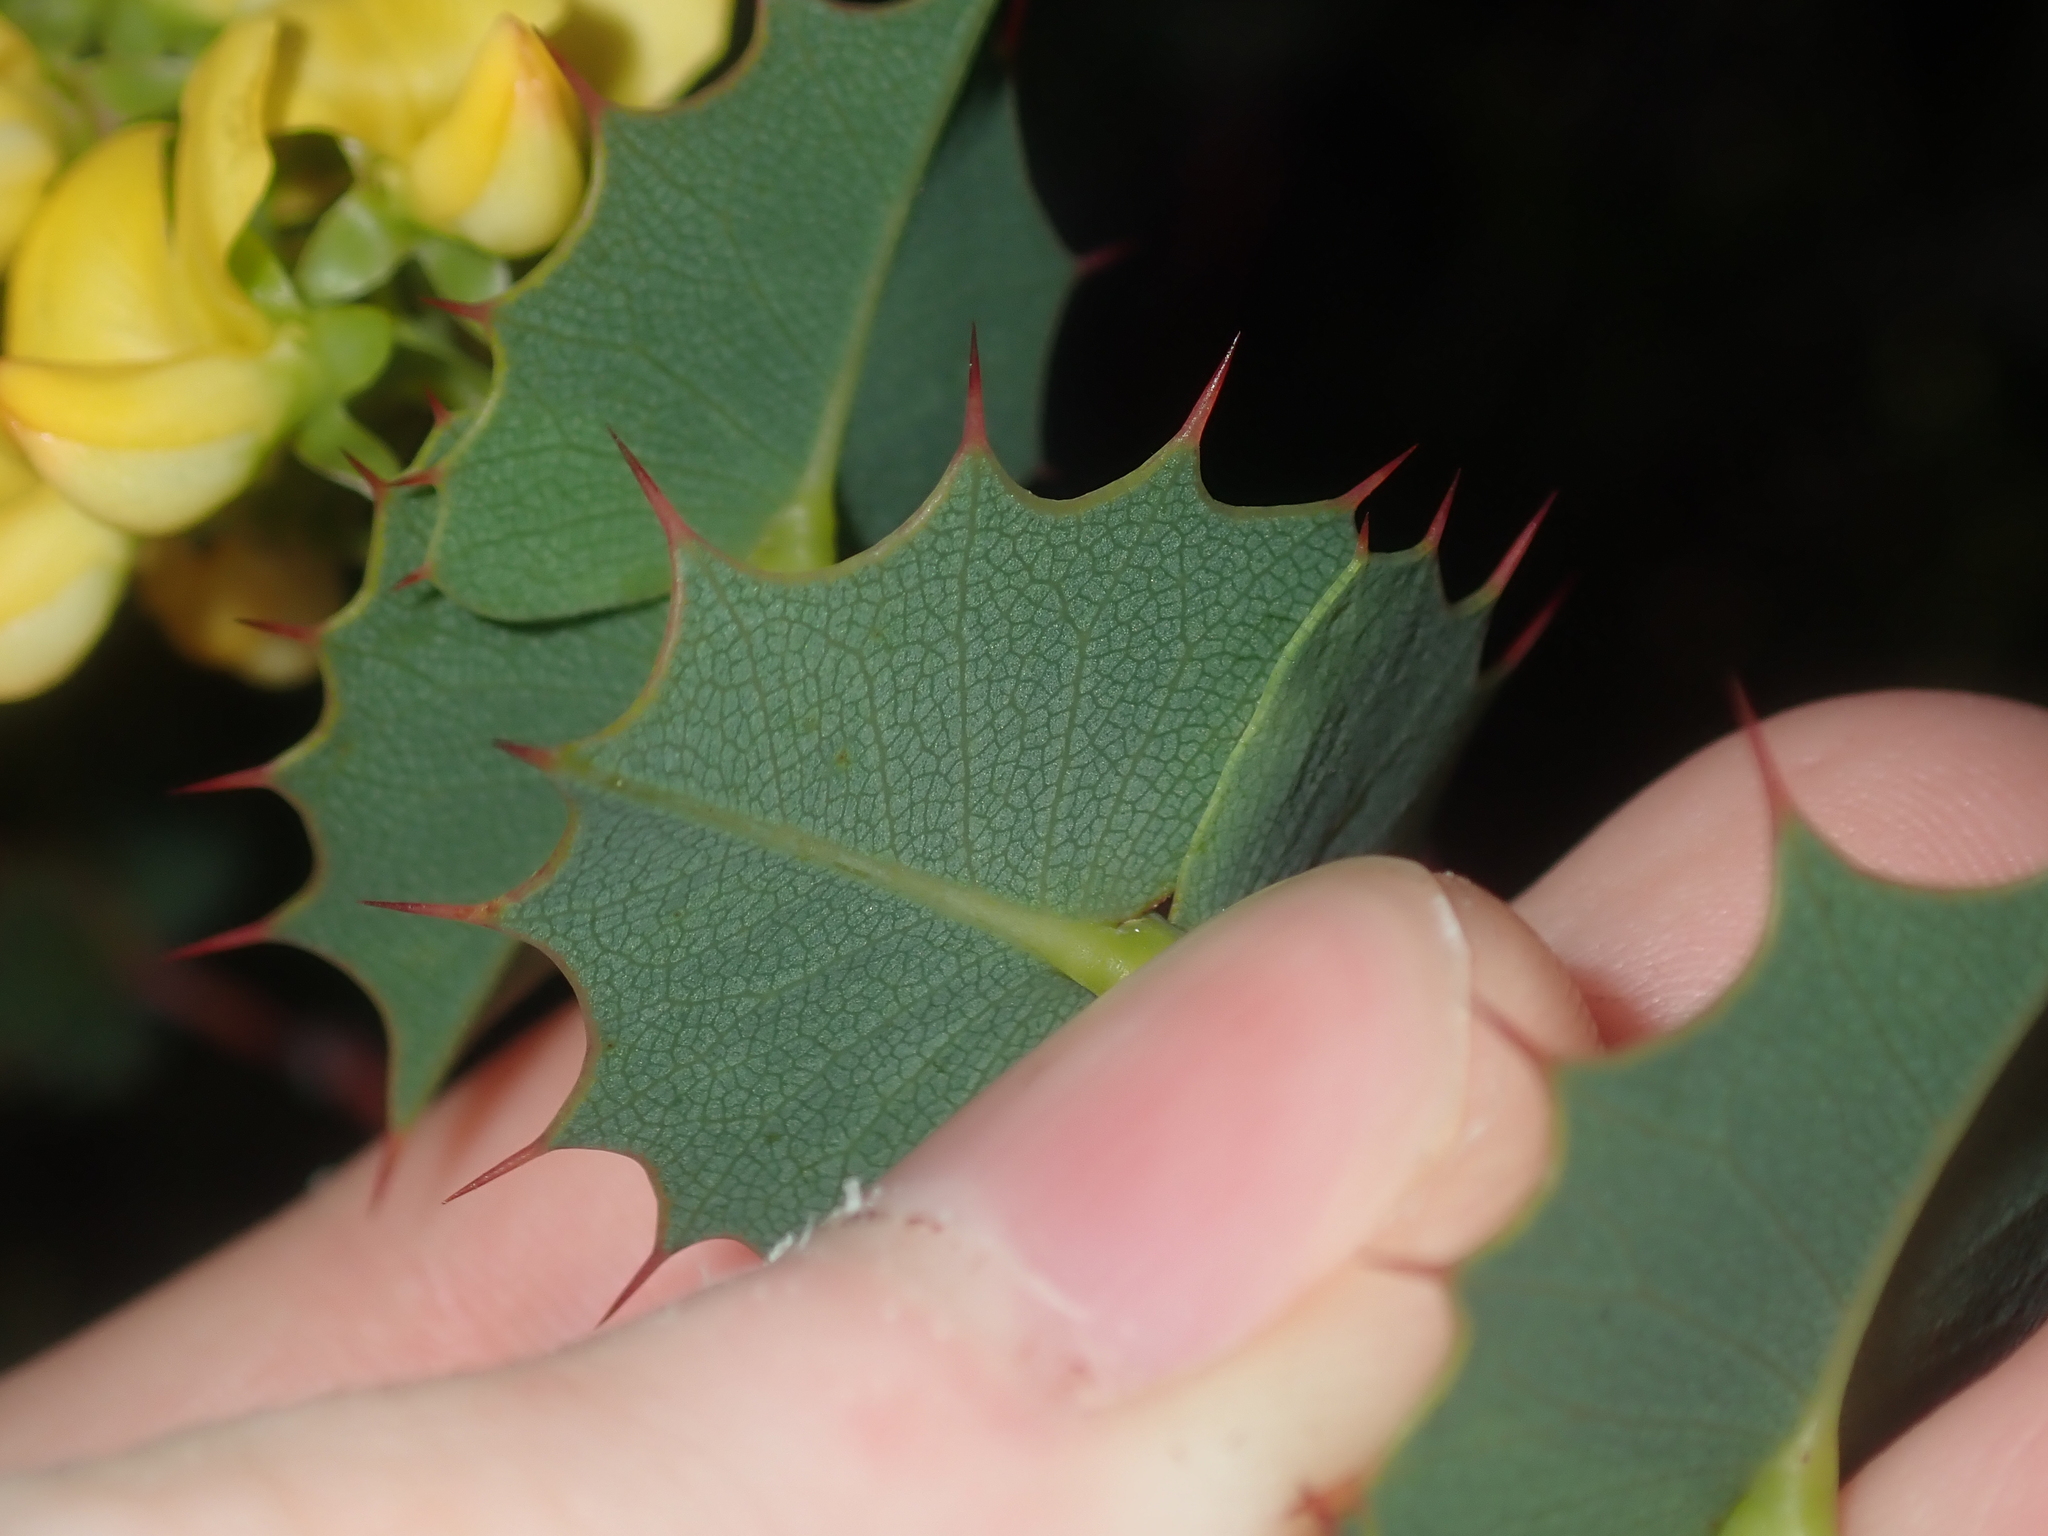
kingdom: Plantae
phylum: Tracheophyta
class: Magnoliopsida
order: Fabales
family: Fabaceae
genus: Gastrolobium
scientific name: Gastrolobium spinosum
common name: Prickly poison
